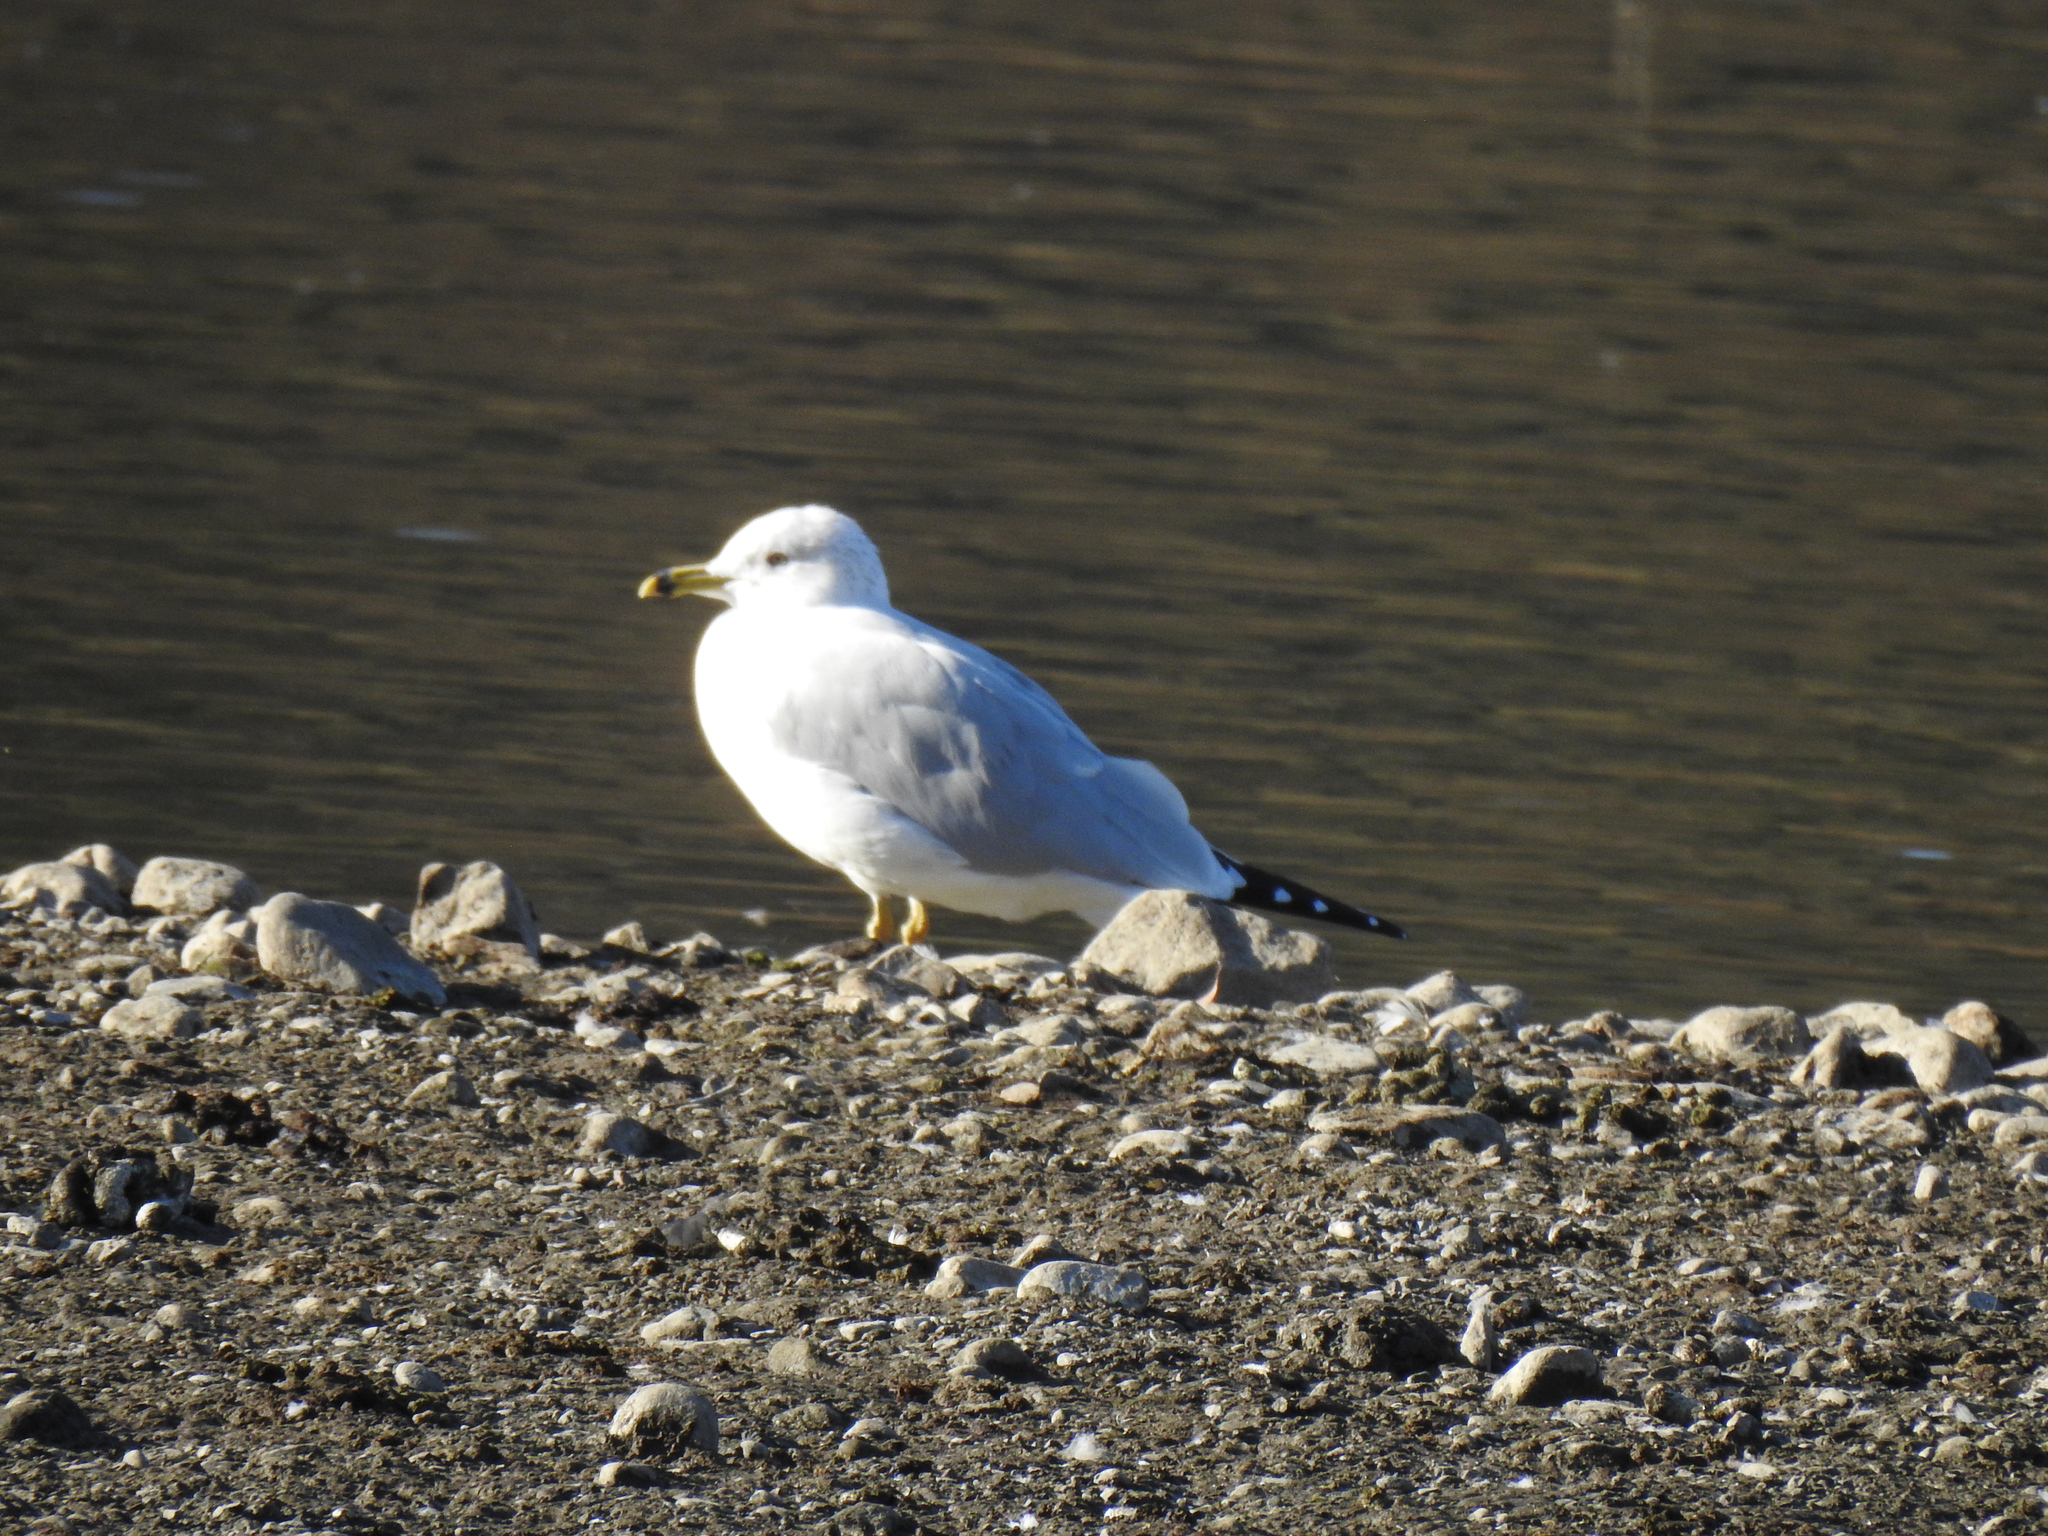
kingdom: Animalia
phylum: Chordata
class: Aves
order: Charadriiformes
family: Laridae
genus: Larus
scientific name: Larus delawarensis
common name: Ring-billed gull
